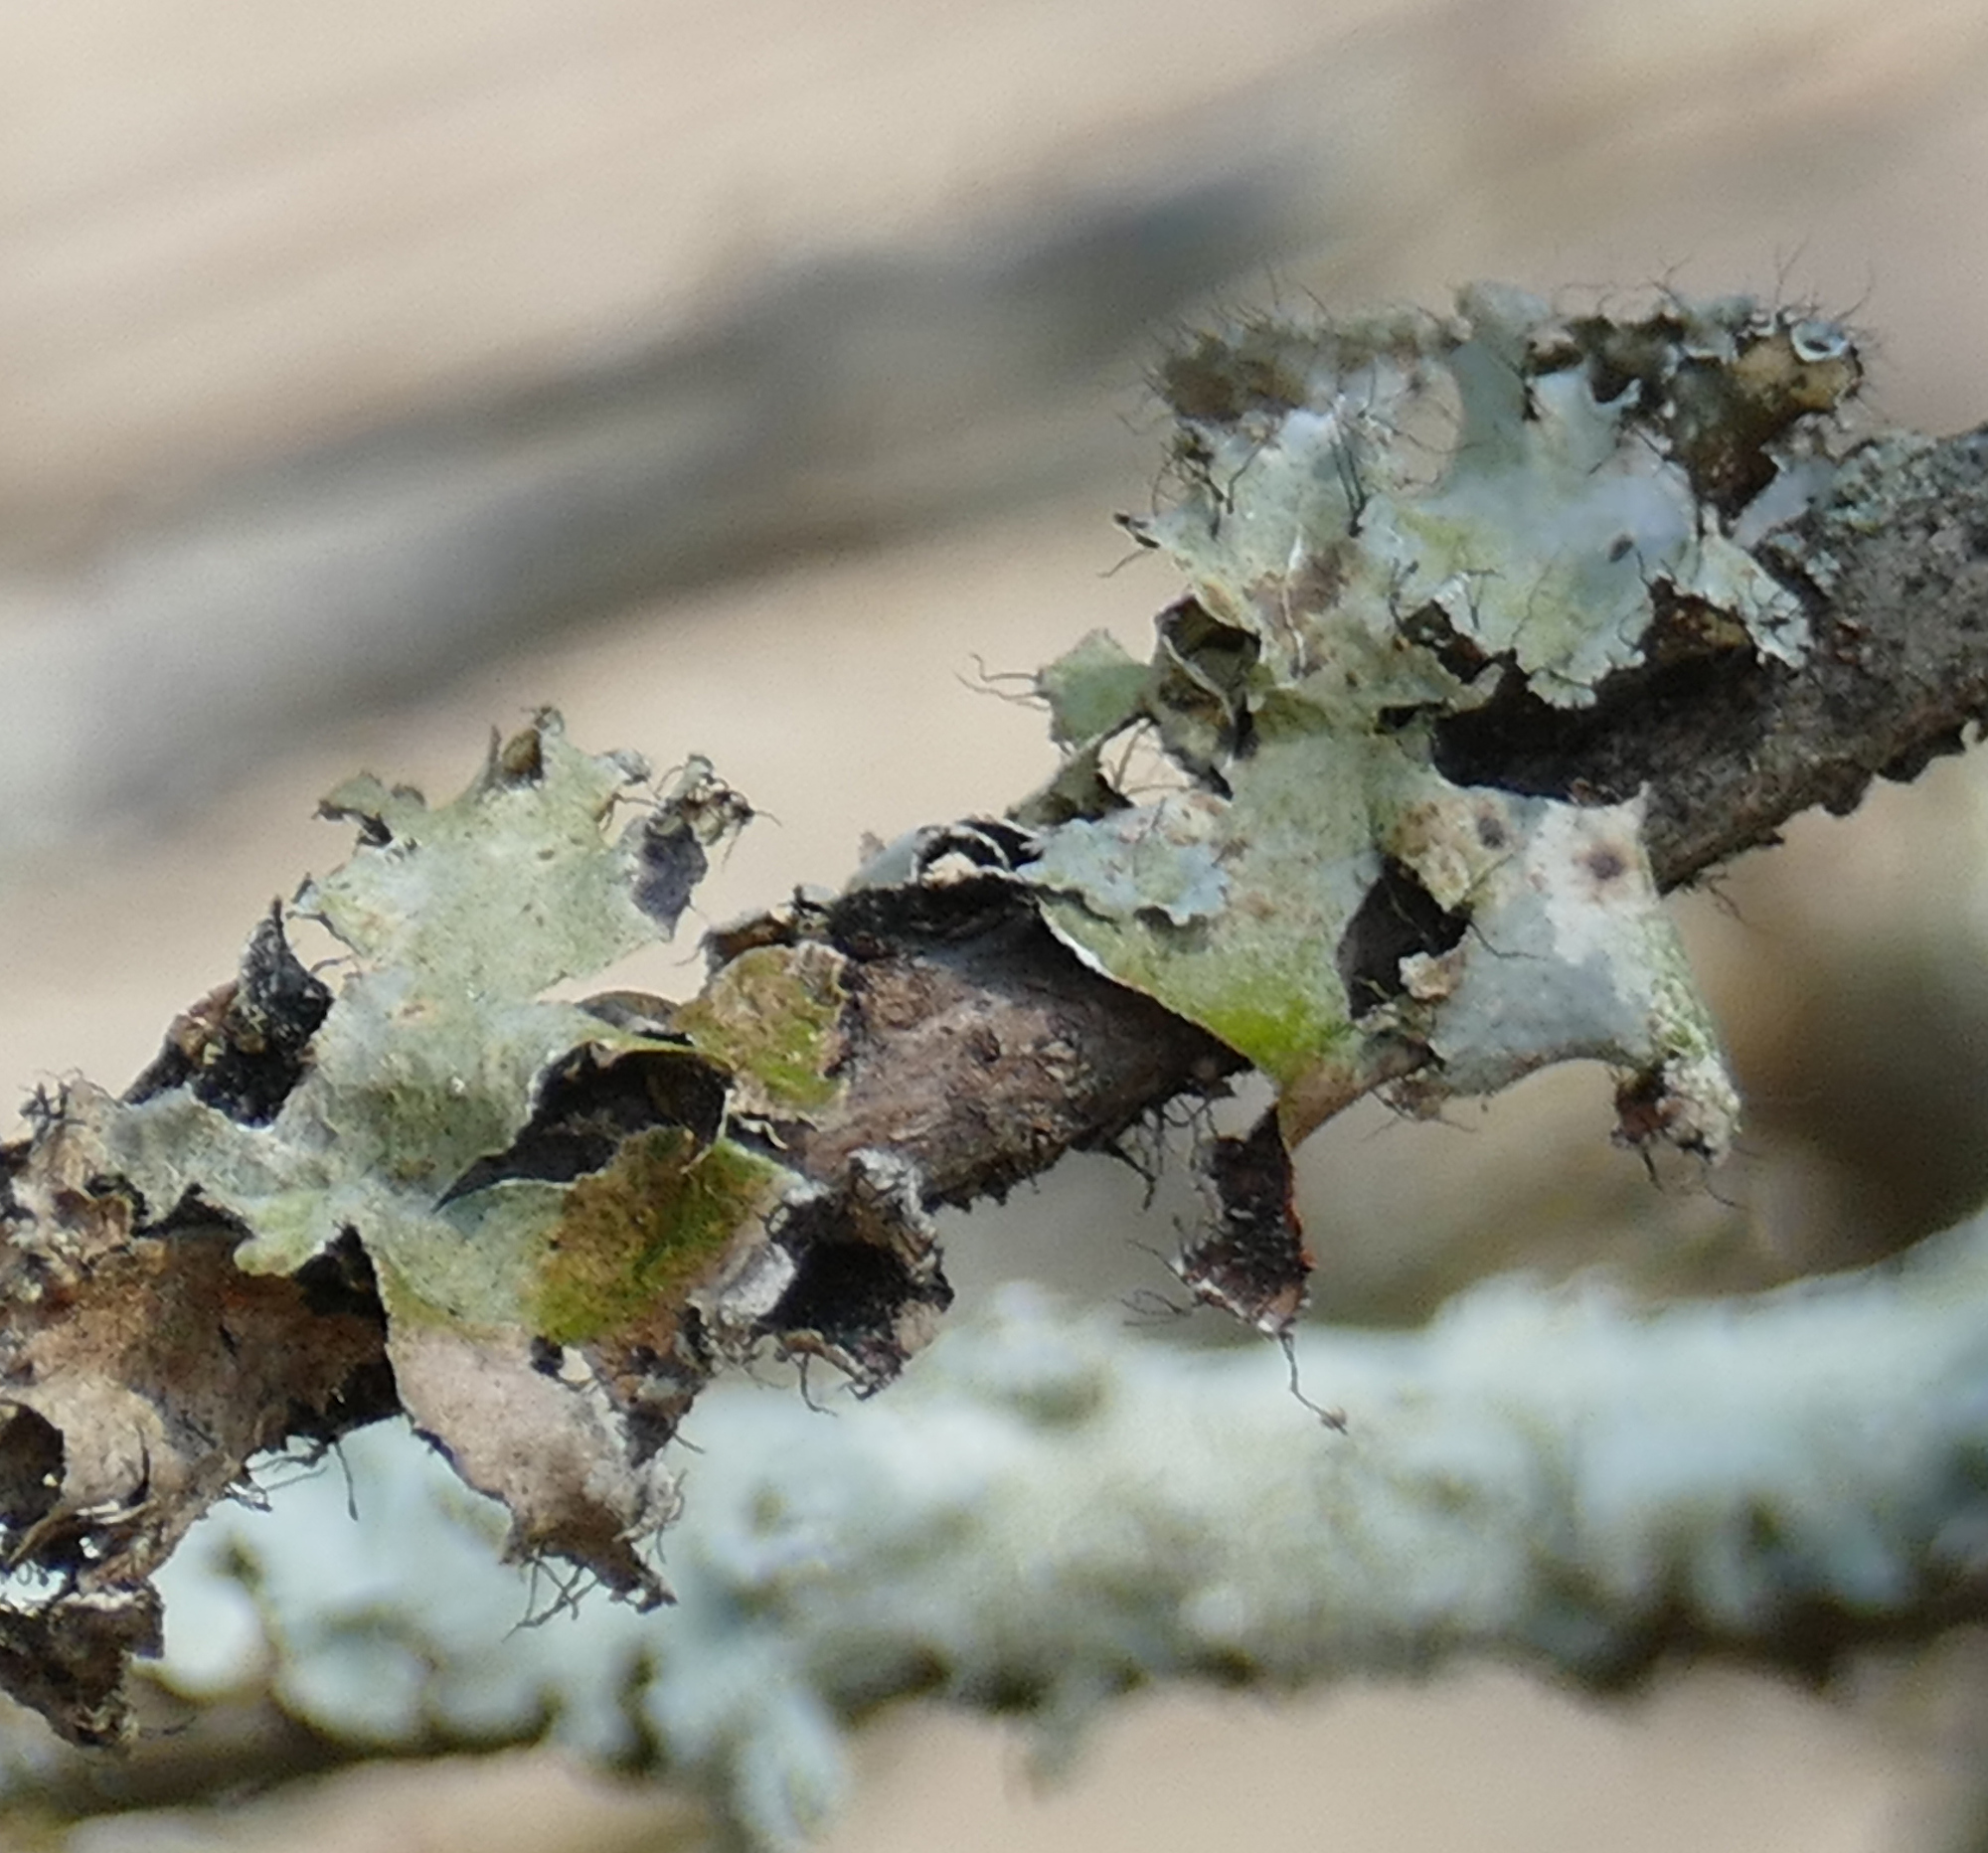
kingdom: Fungi
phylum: Ascomycota
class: Lecanoromycetes
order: Lecanorales
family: Parmeliaceae
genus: Parmotrema
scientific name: Parmotrema hypotropum
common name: Powdered ruffle lichen
